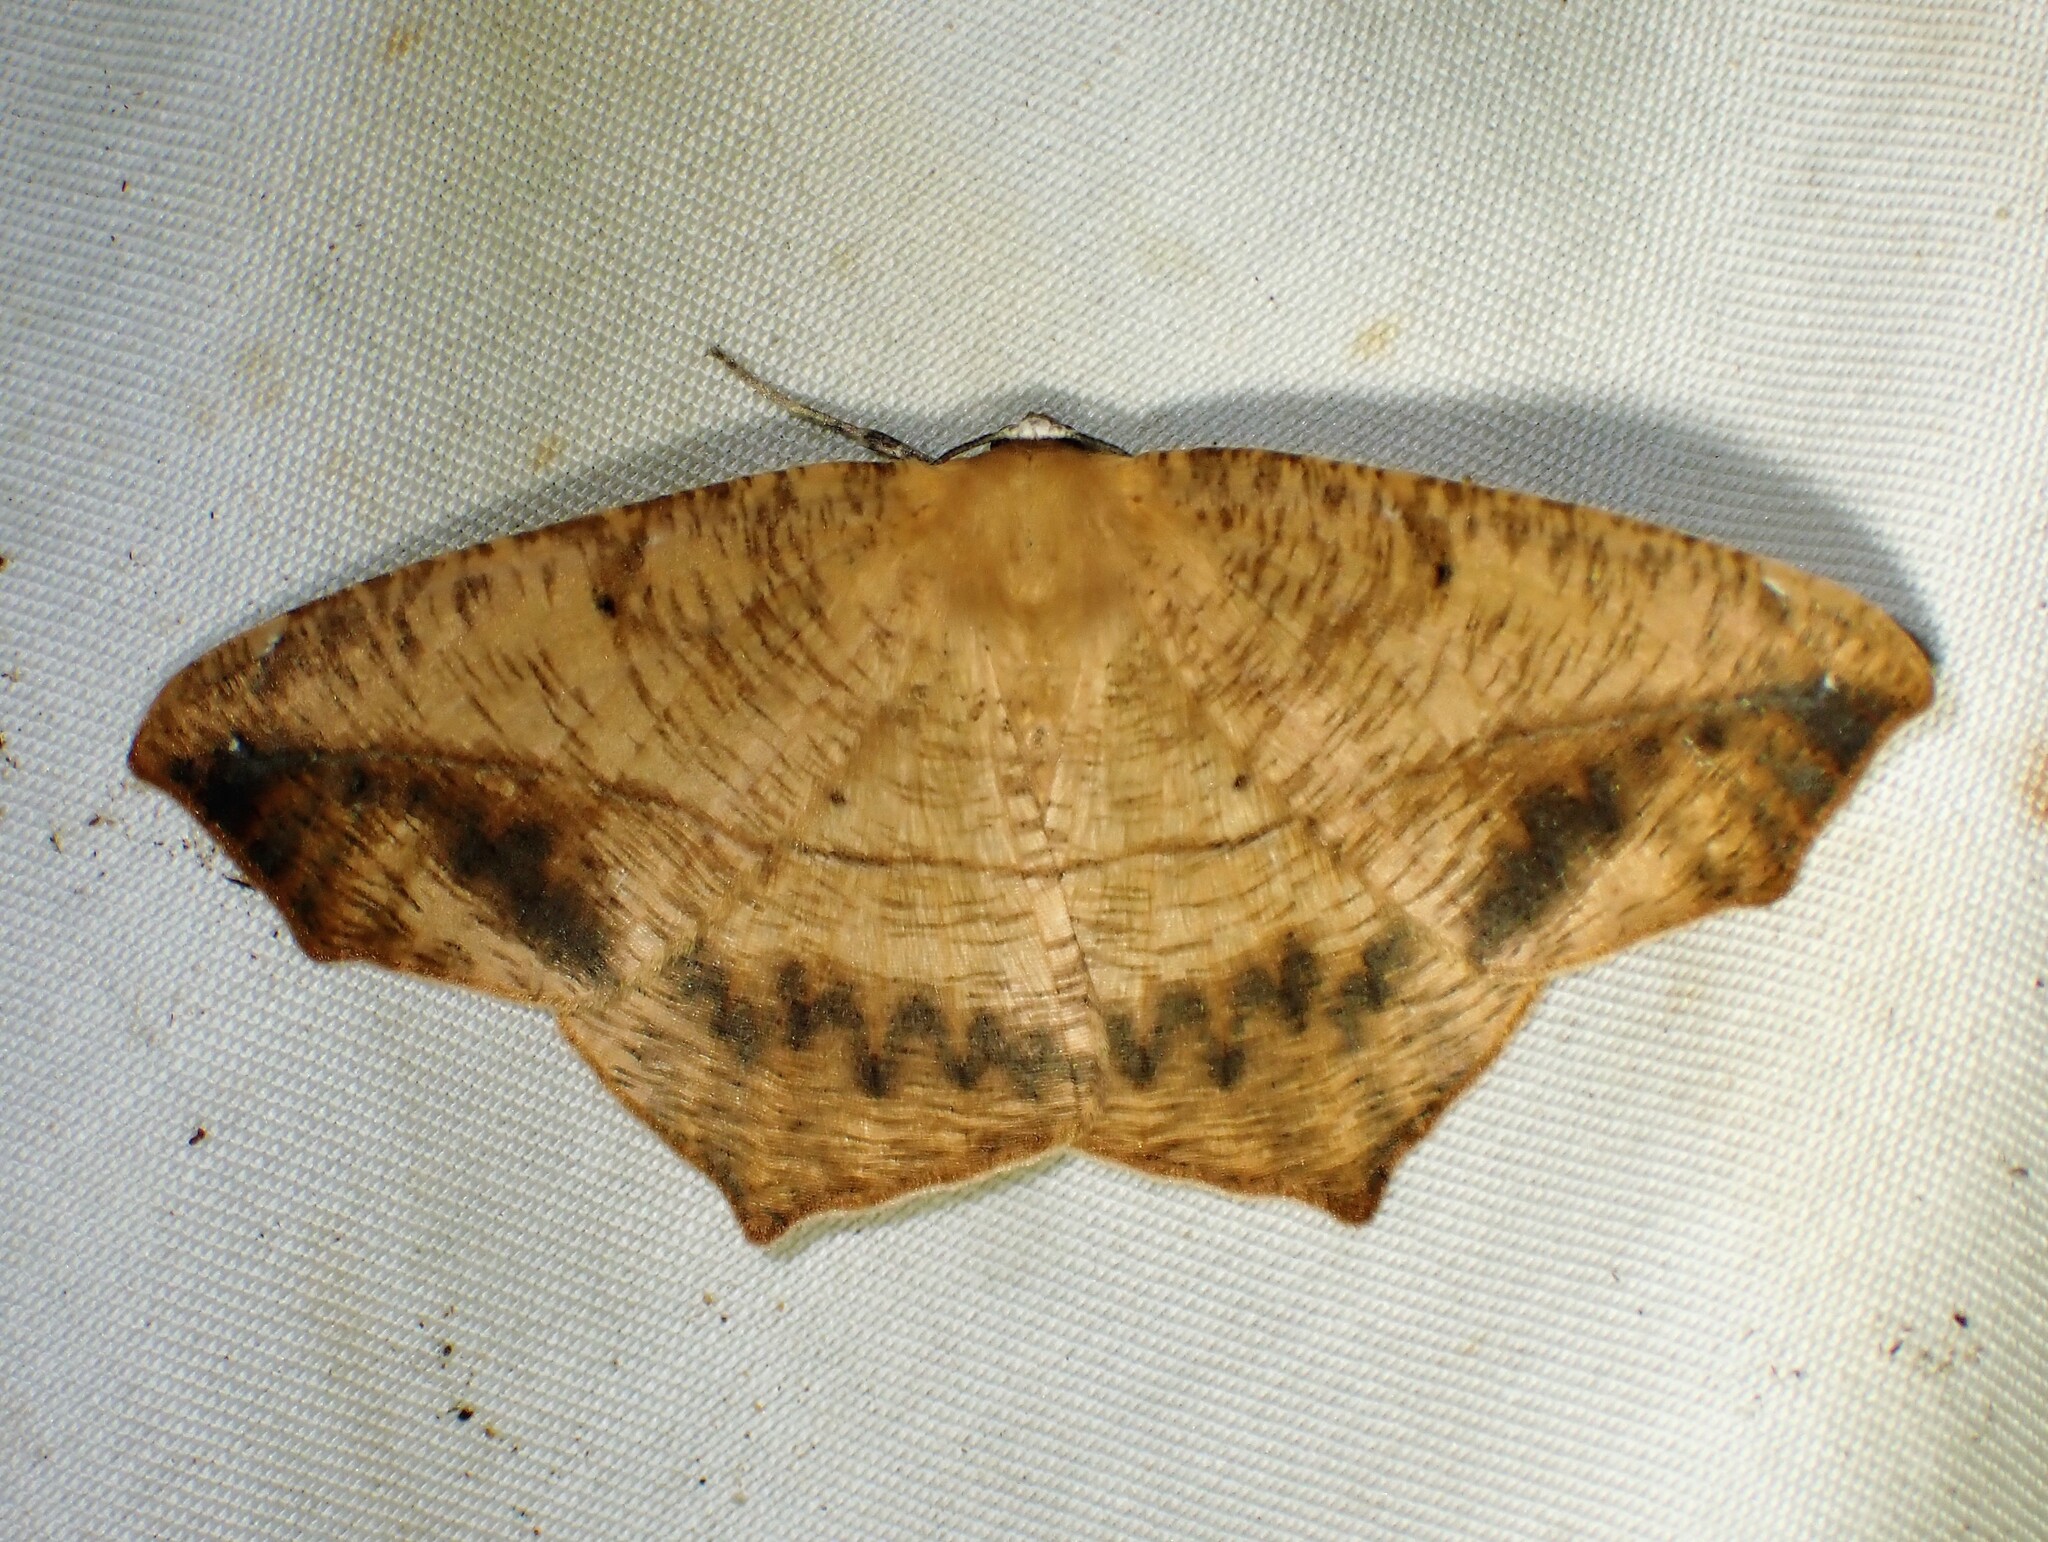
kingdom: Animalia
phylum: Arthropoda
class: Insecta
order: Lepidoptera
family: Geometridae
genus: Prochoerodes
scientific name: Prochoerodes lineola
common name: Large maple spanworm
